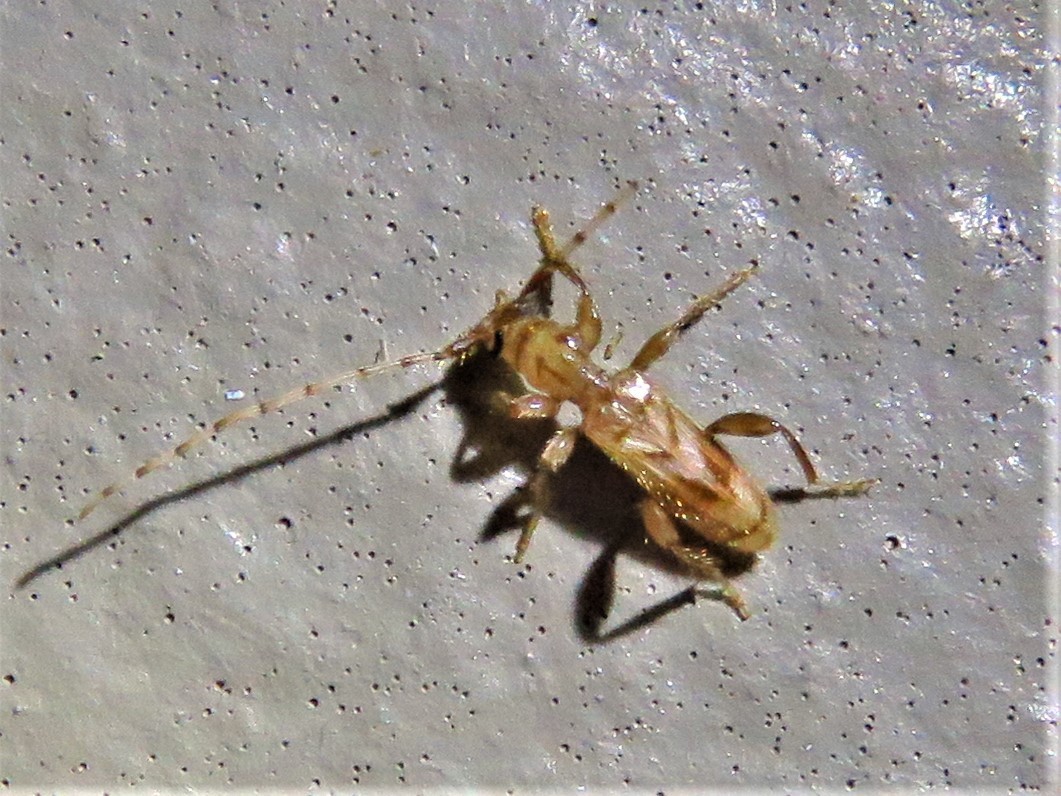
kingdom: Animalia
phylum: Arthropoda
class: Insecta
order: Coleoptera
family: Cerambycidae
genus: Obrium
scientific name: Obrium maculatum
